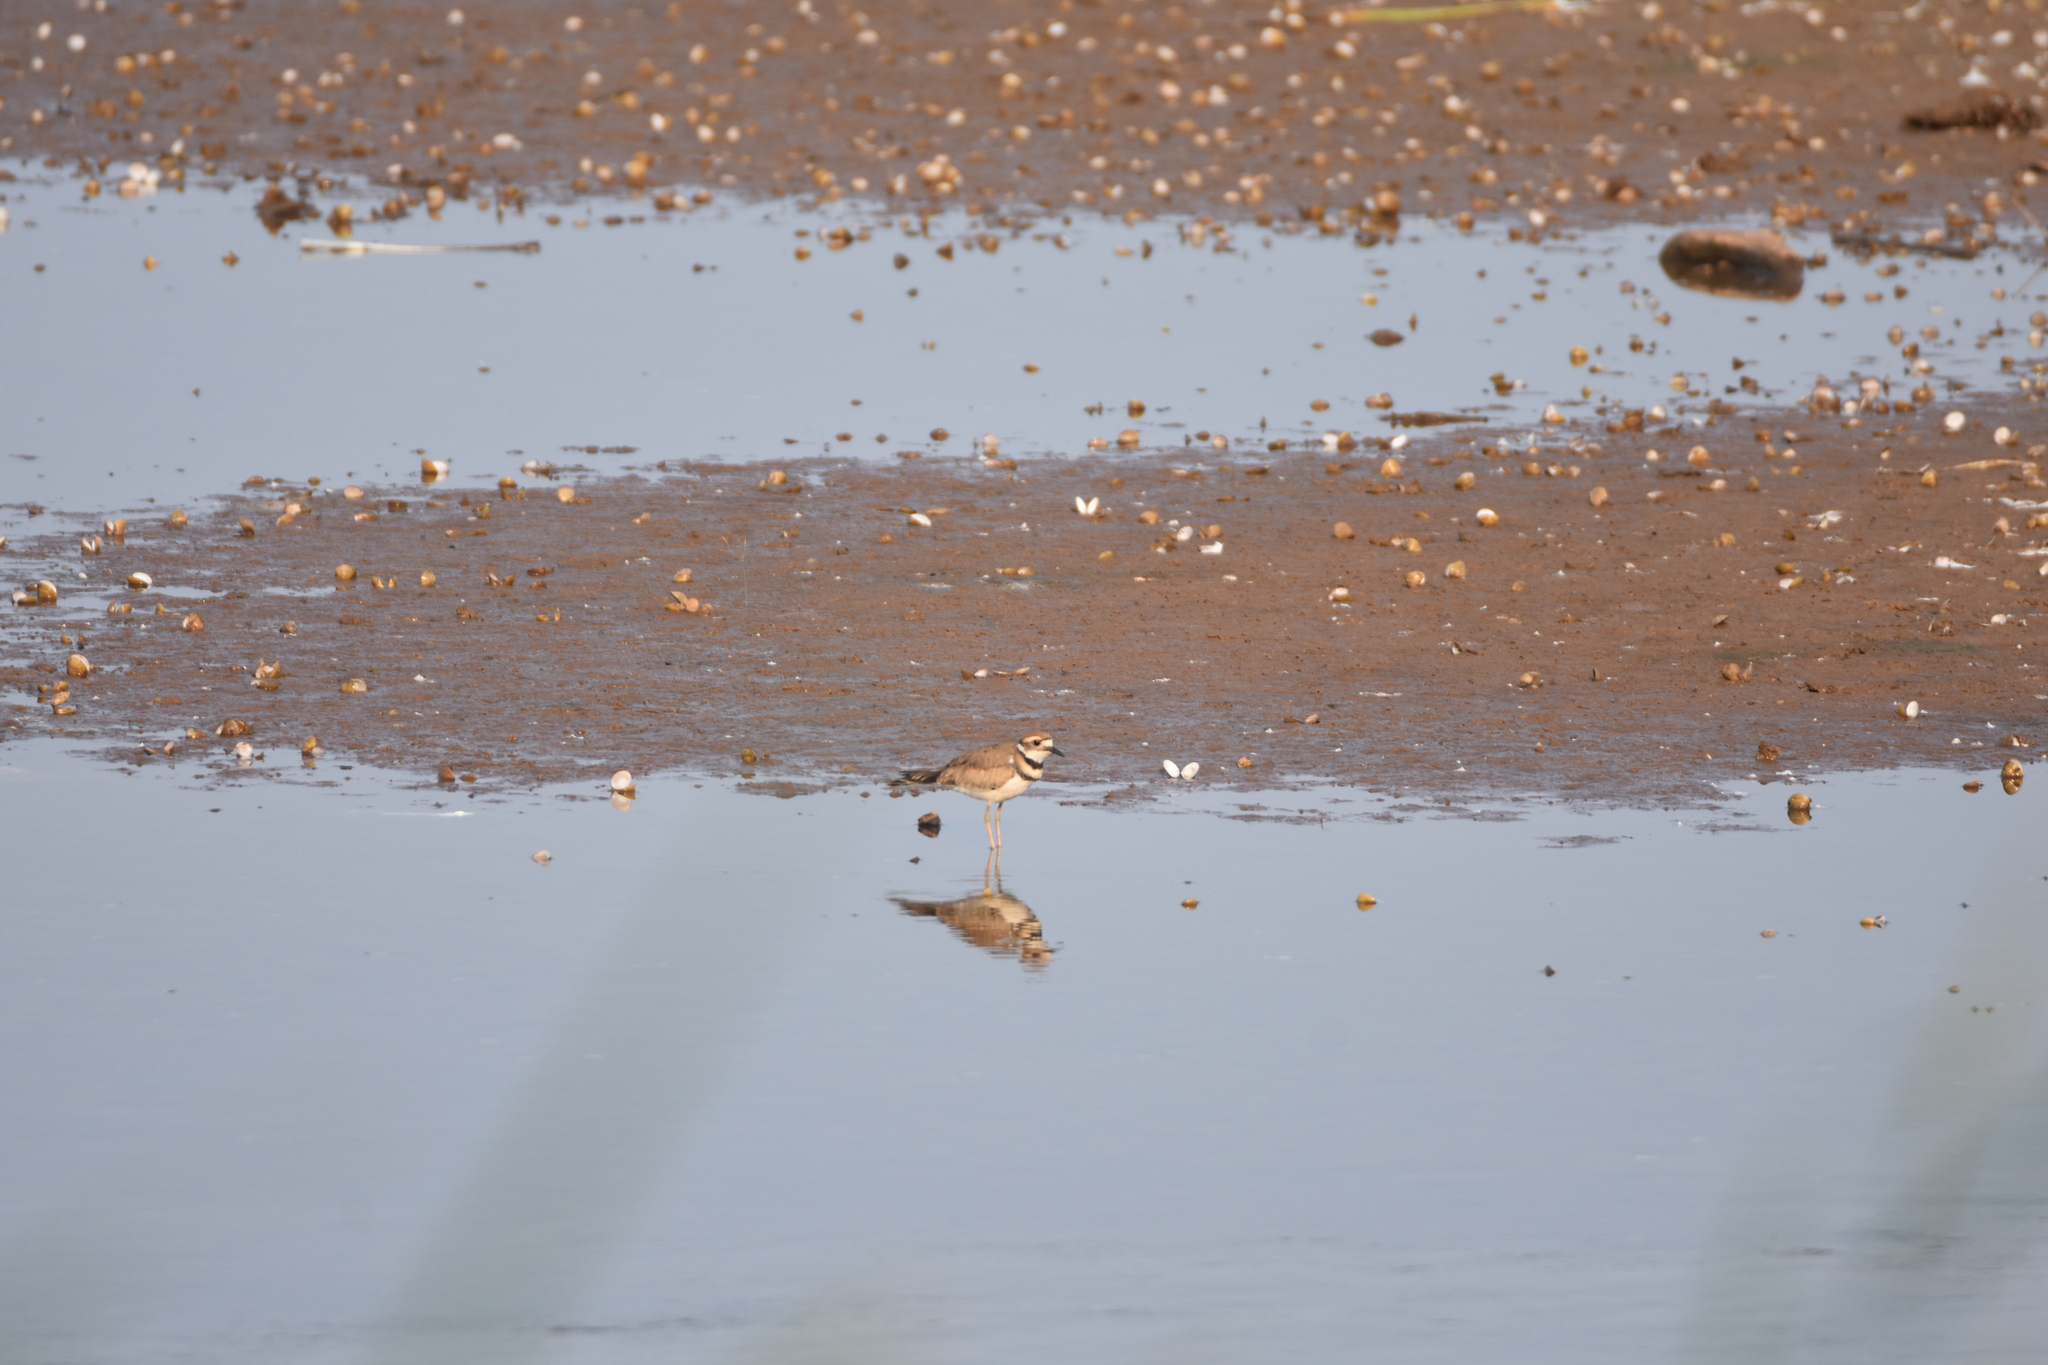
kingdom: Animalia
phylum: Chordata
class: Aves
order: Charadriiformes
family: Charadriidae
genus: Charadrius
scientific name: Charadrius vociferus
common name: Killdeer
